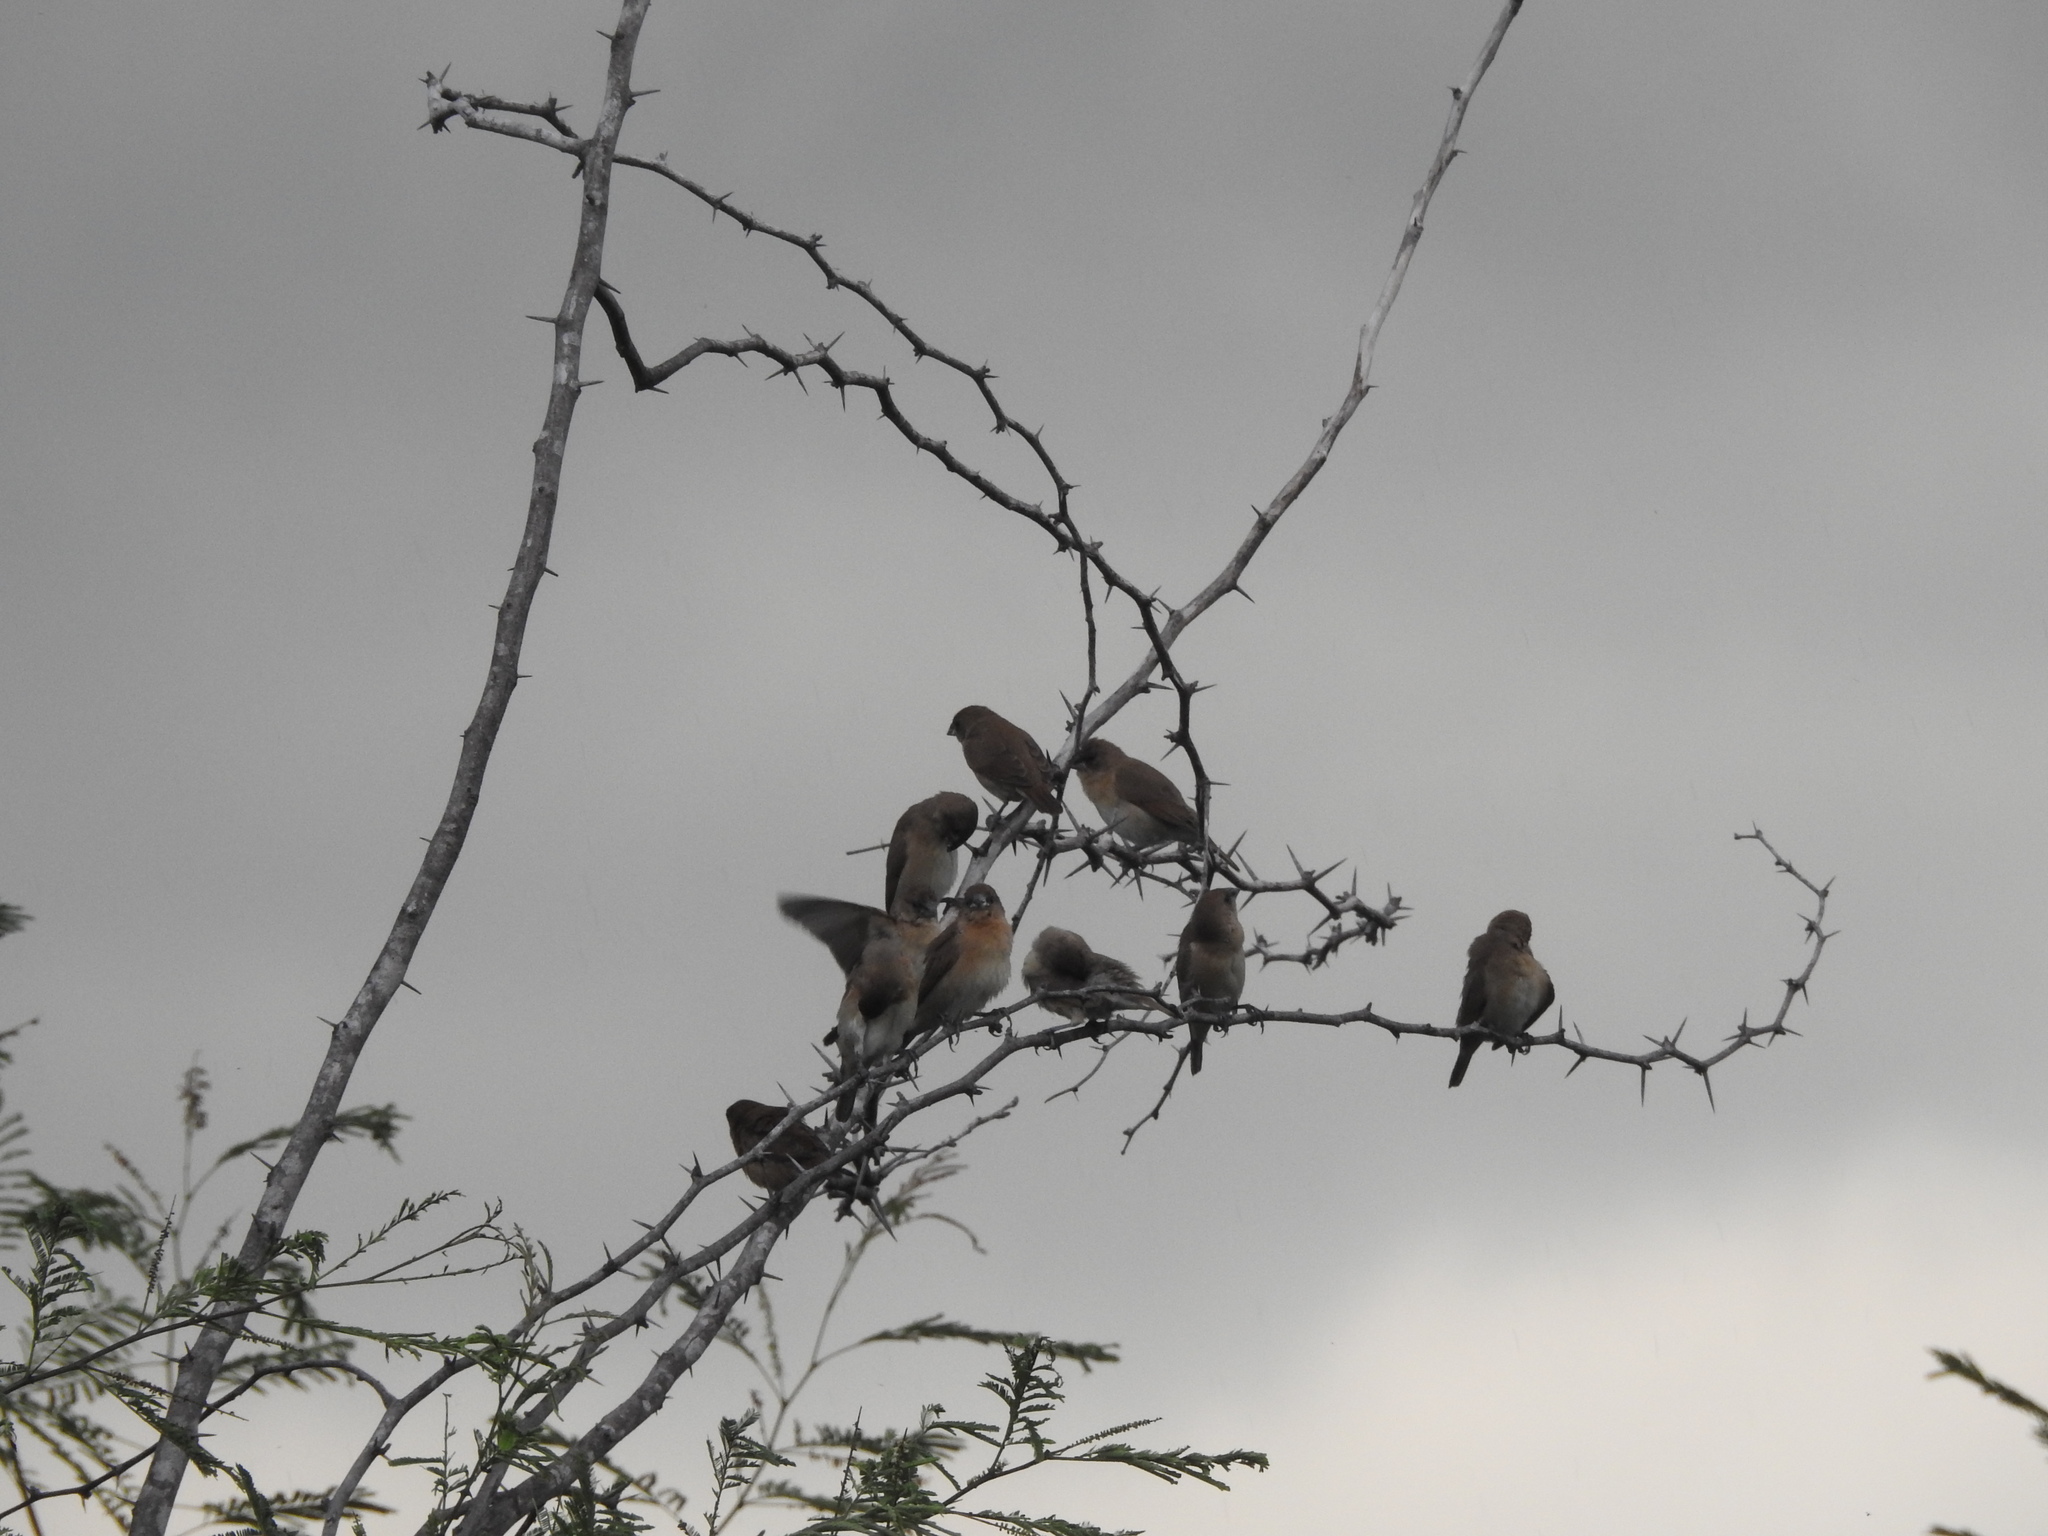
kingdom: Animalia
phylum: Chordata
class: Aves
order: Passeriformes
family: Estrildidae
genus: Euodice
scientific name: Euodice malabarica
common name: Indian silverbill
